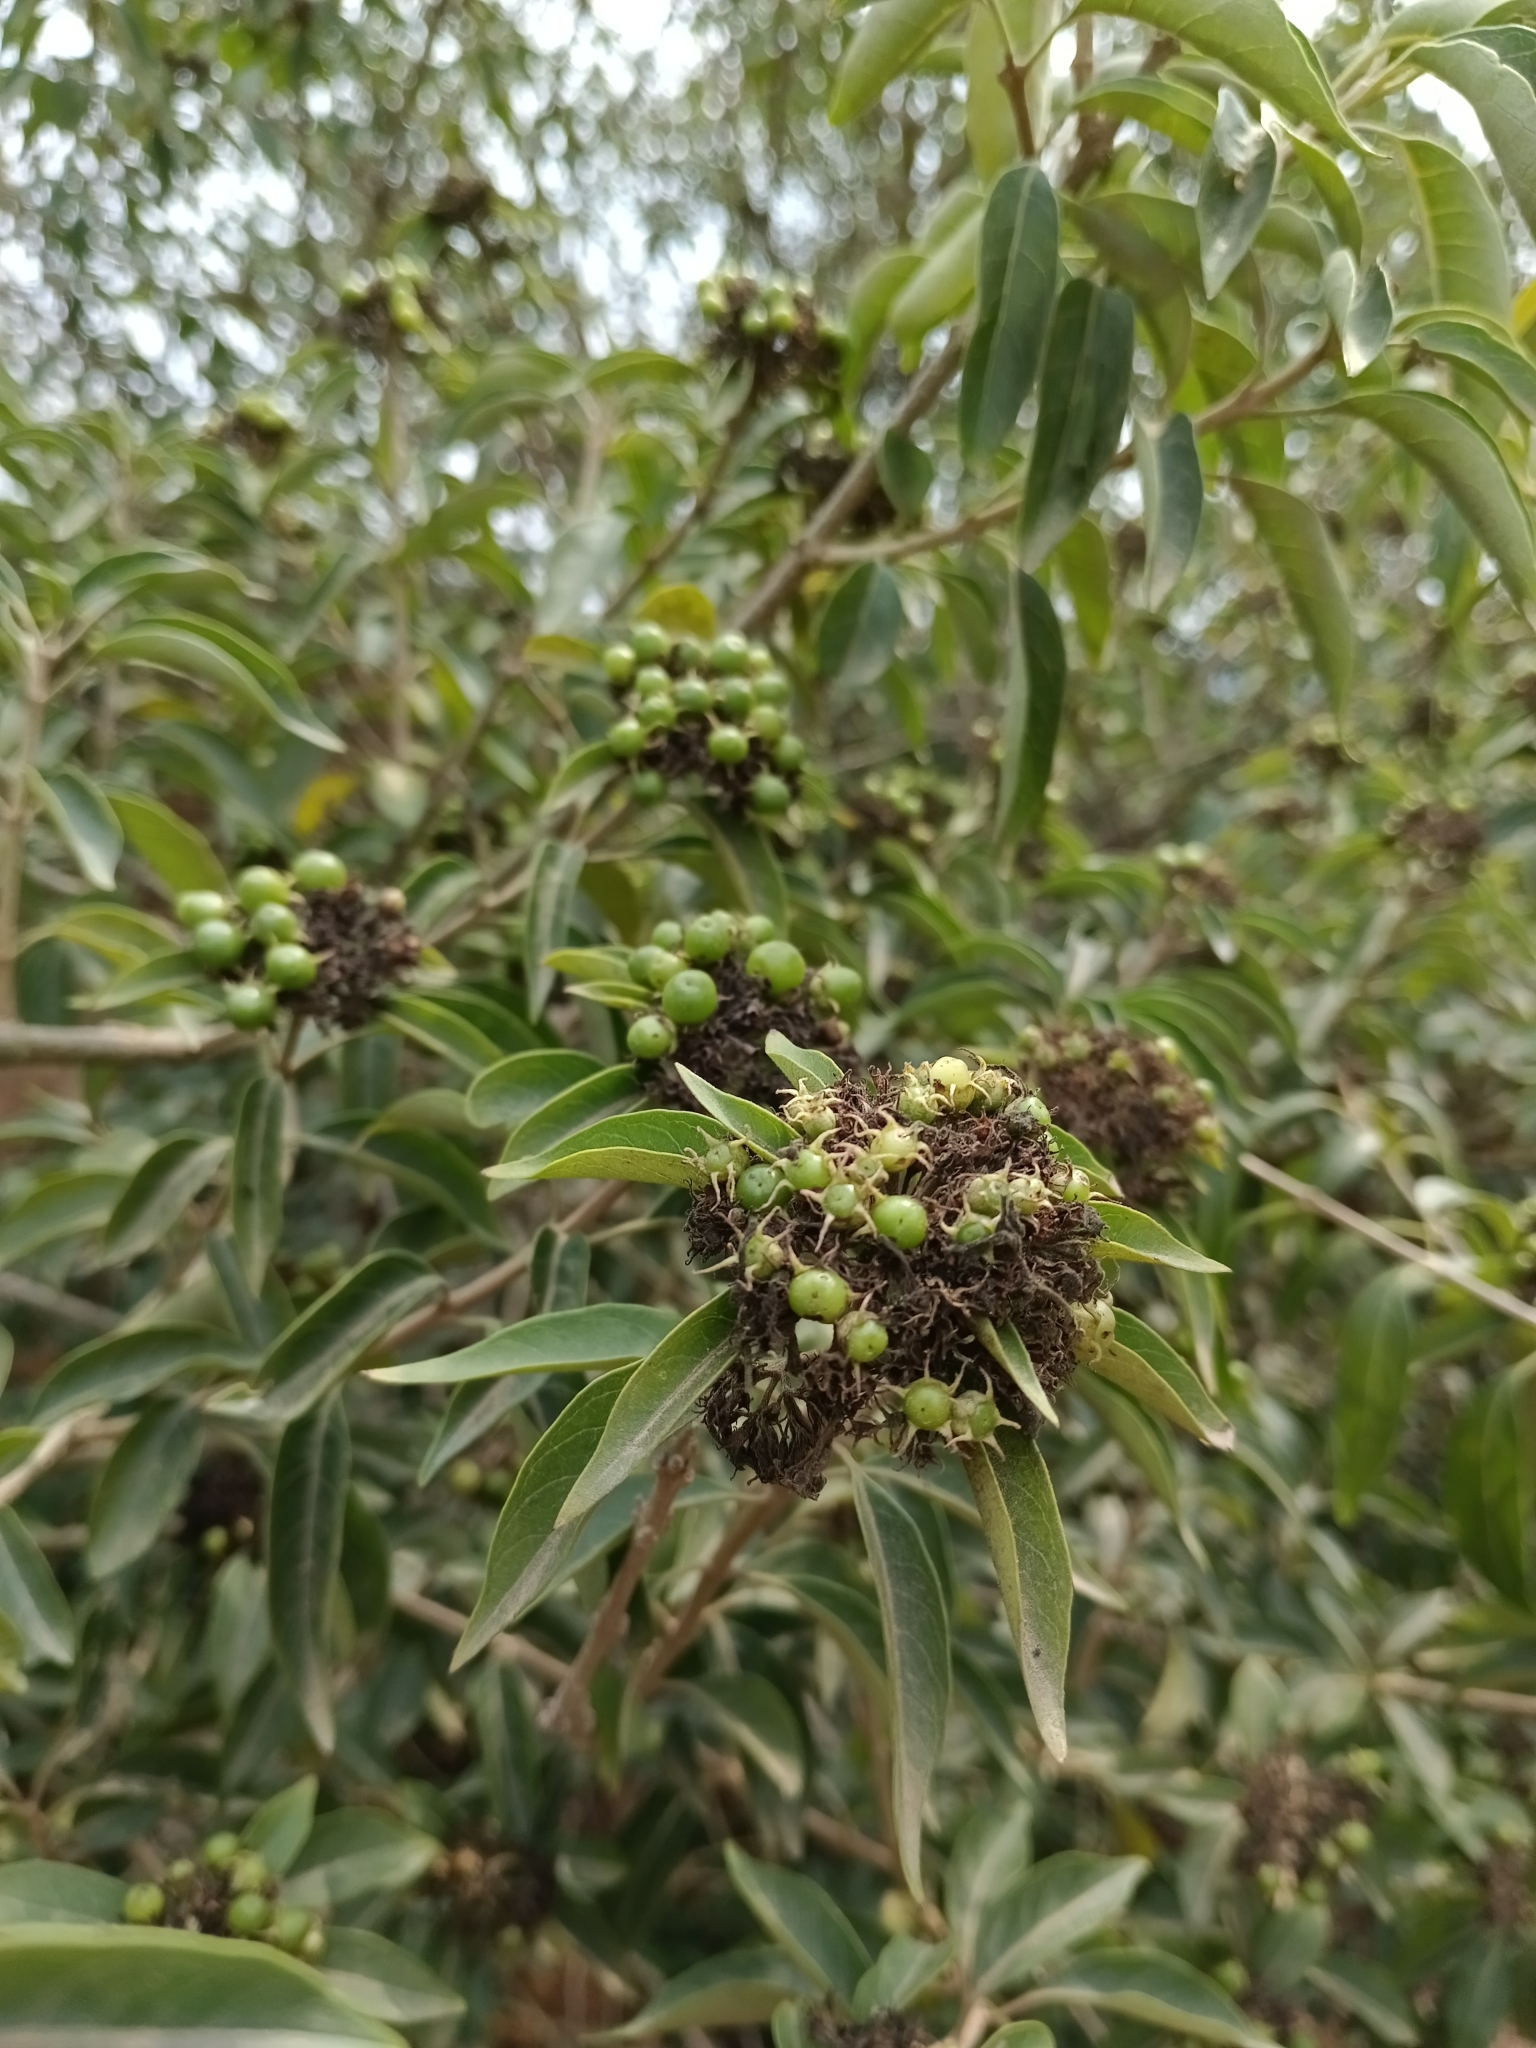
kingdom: Plantae
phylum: Tracheophyta
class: Magnoliopsida
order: Lamiales
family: Lamiaceae
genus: Volkameria
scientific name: Volkameria glabra
